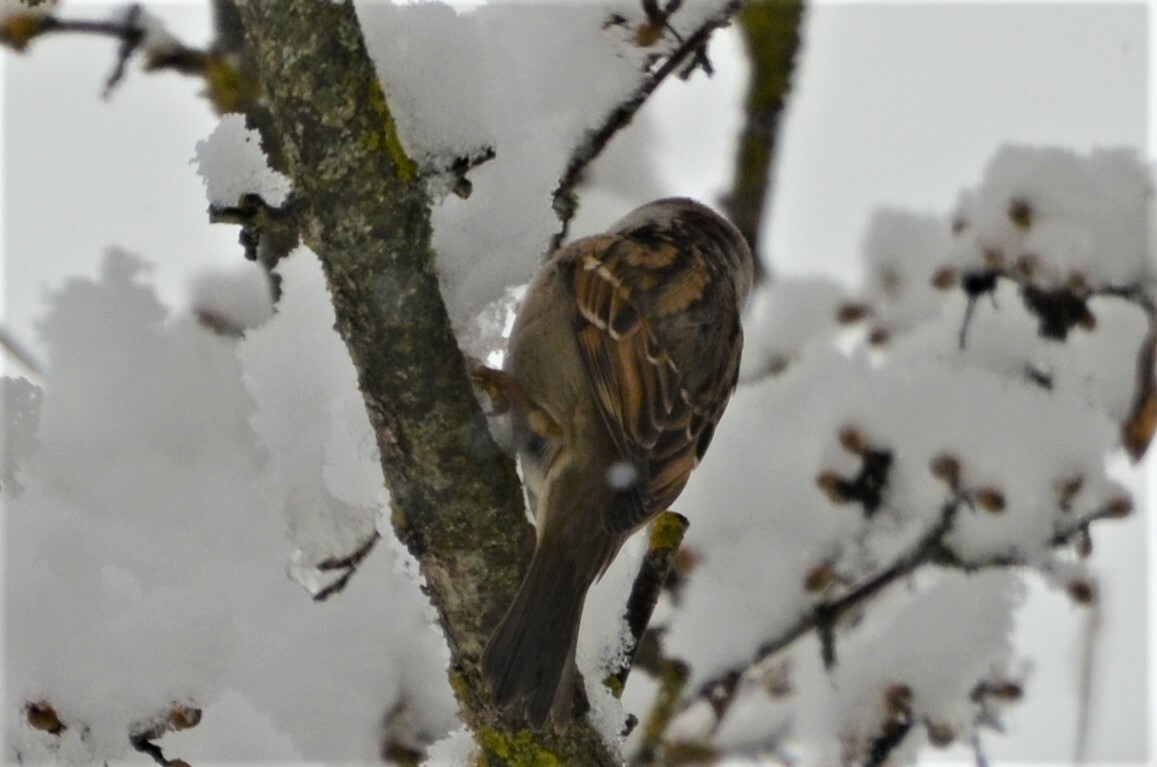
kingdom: Animalia
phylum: Chordata
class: Aves
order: Passeriformes
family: Passeridae
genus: Passer
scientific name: Passer montanus
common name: Eurasian tree sparrow
